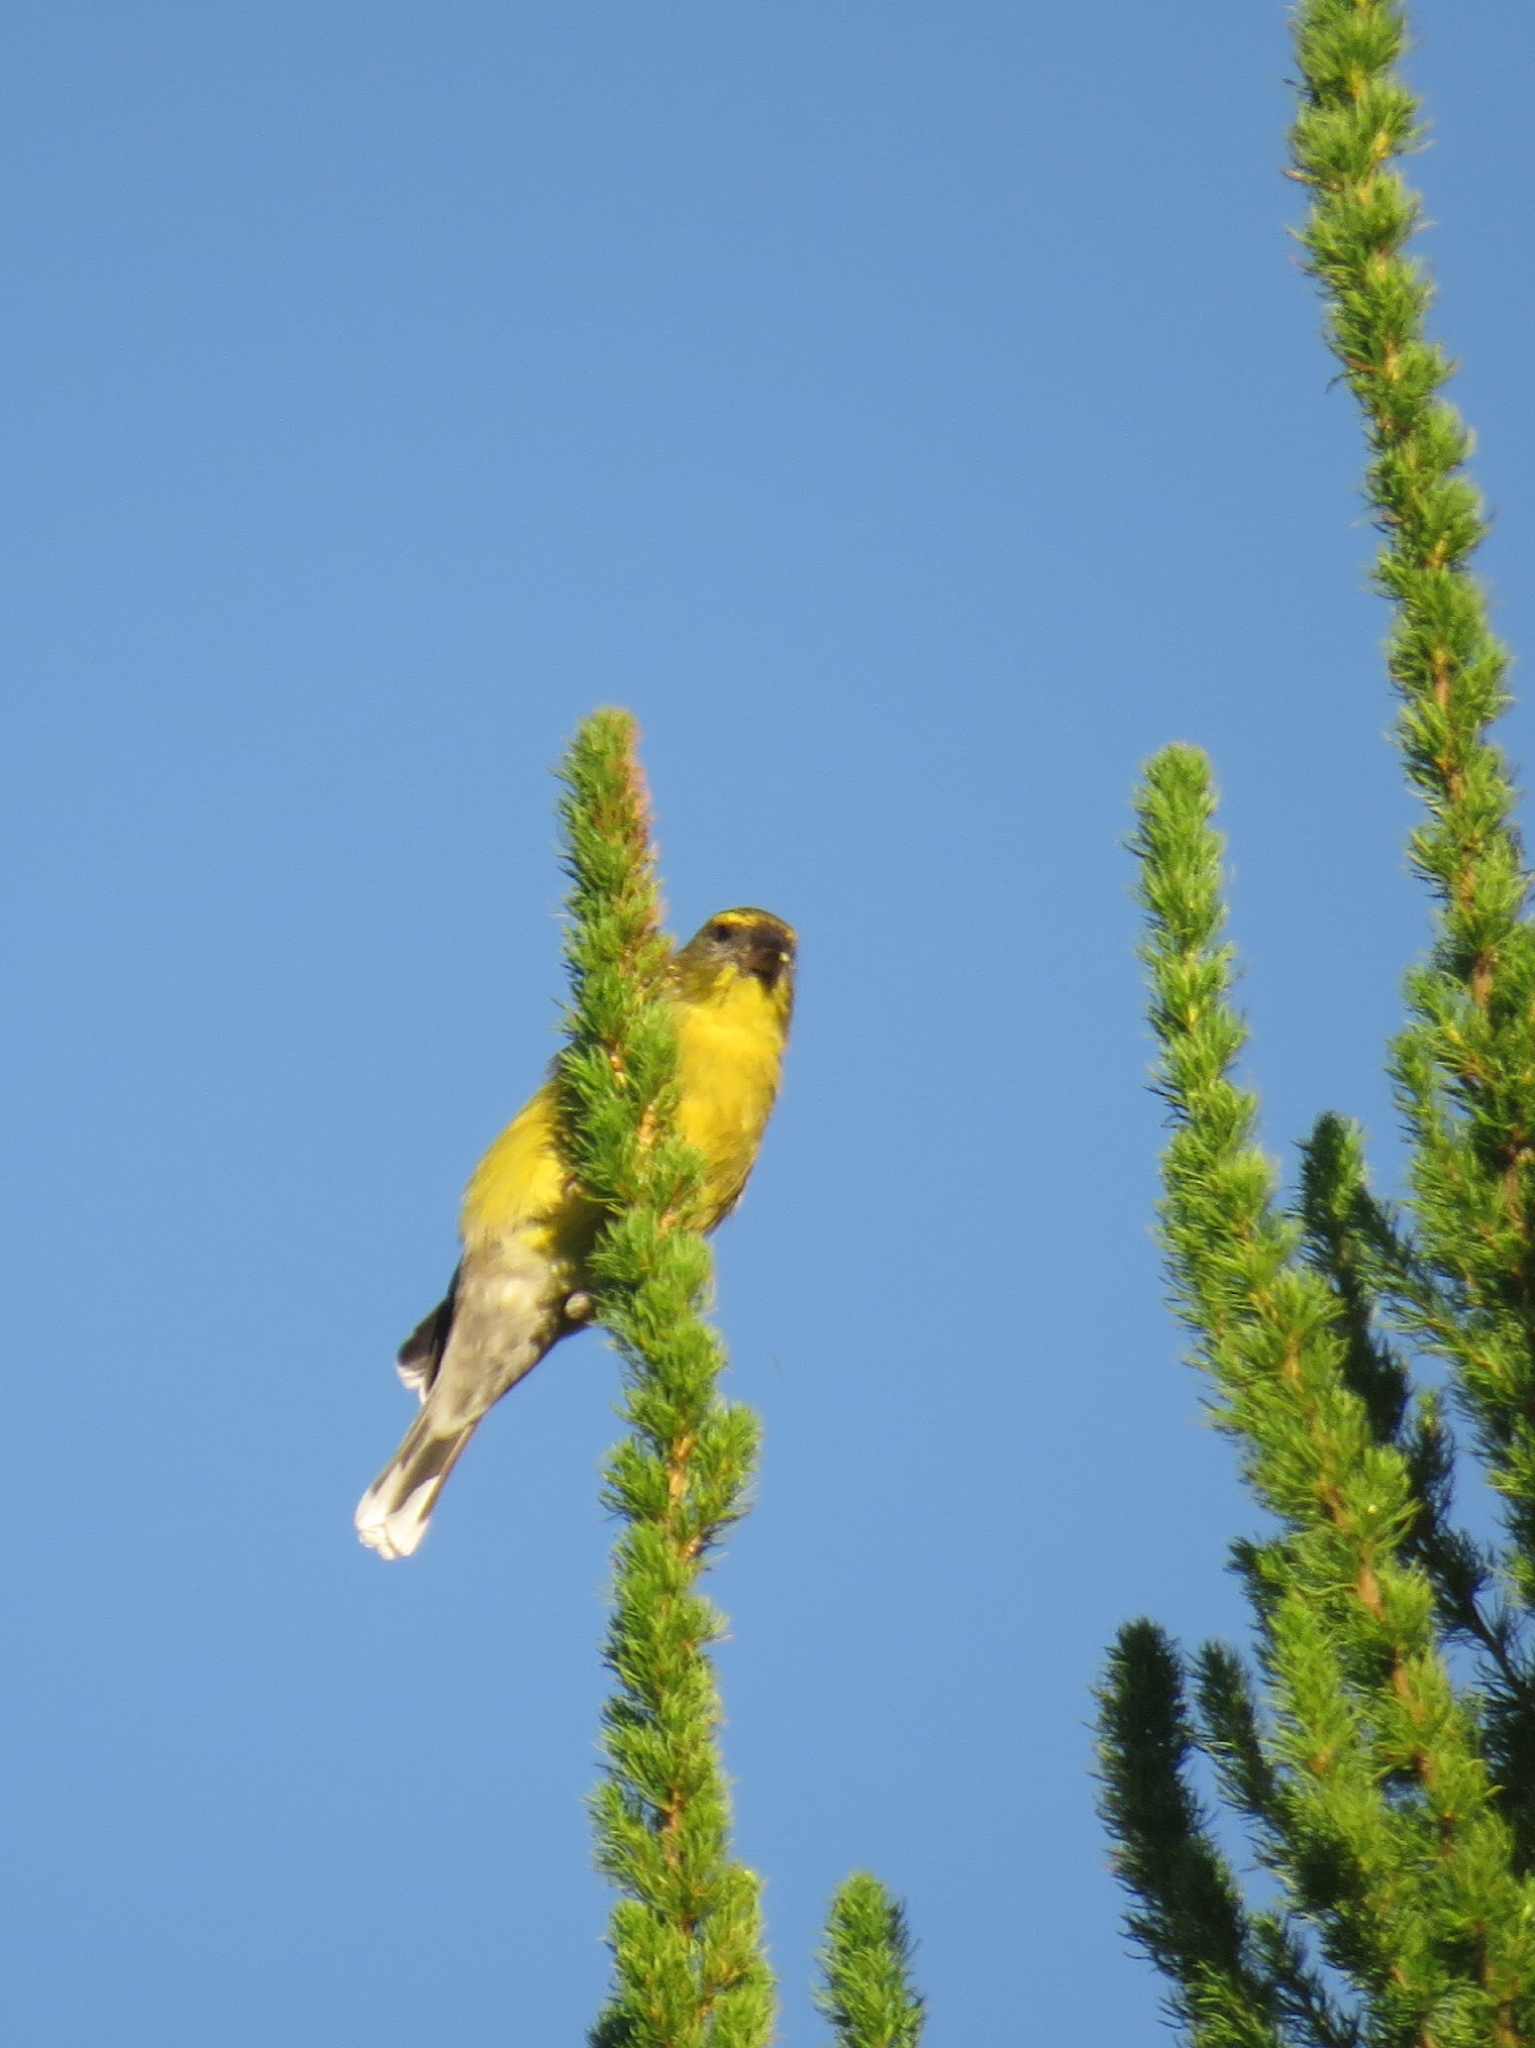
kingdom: Animalia
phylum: Chordata
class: Aves
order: Passeriformes
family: Fringillidae
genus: Crithagra
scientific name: Crithagra totta
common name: Cape siskin
